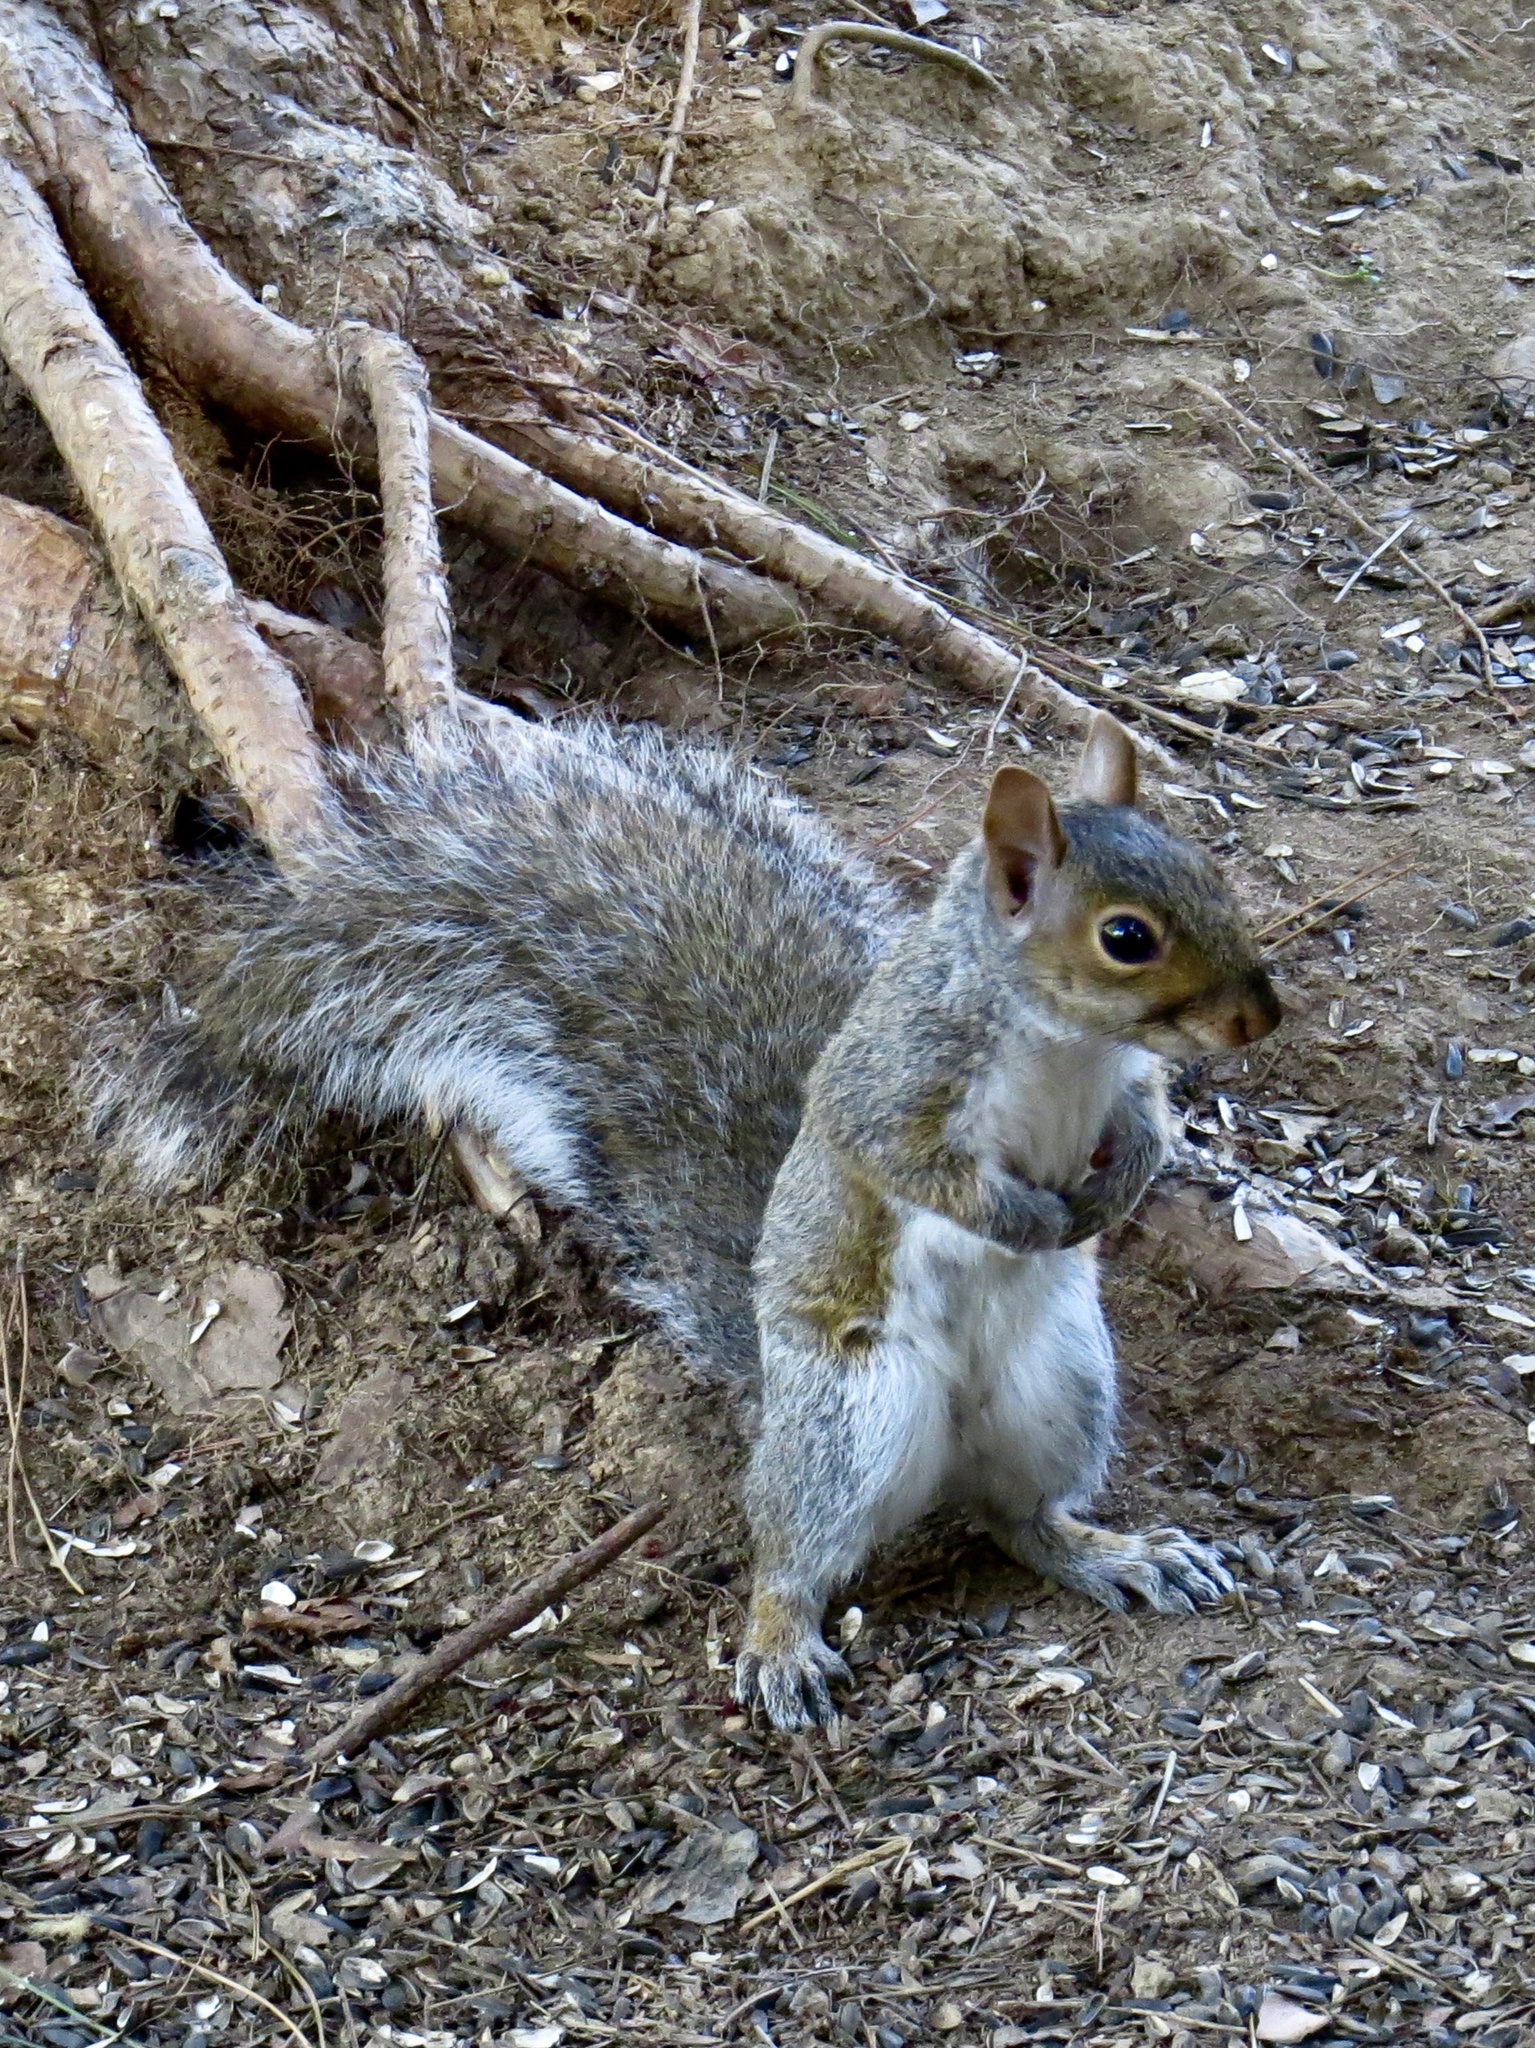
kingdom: Animalia
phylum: Chordata
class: Mammalia
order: Rodentia
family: Sciuridae
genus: Sciurus
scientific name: Sciurus carolinensis
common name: Eastern gray squirrel
